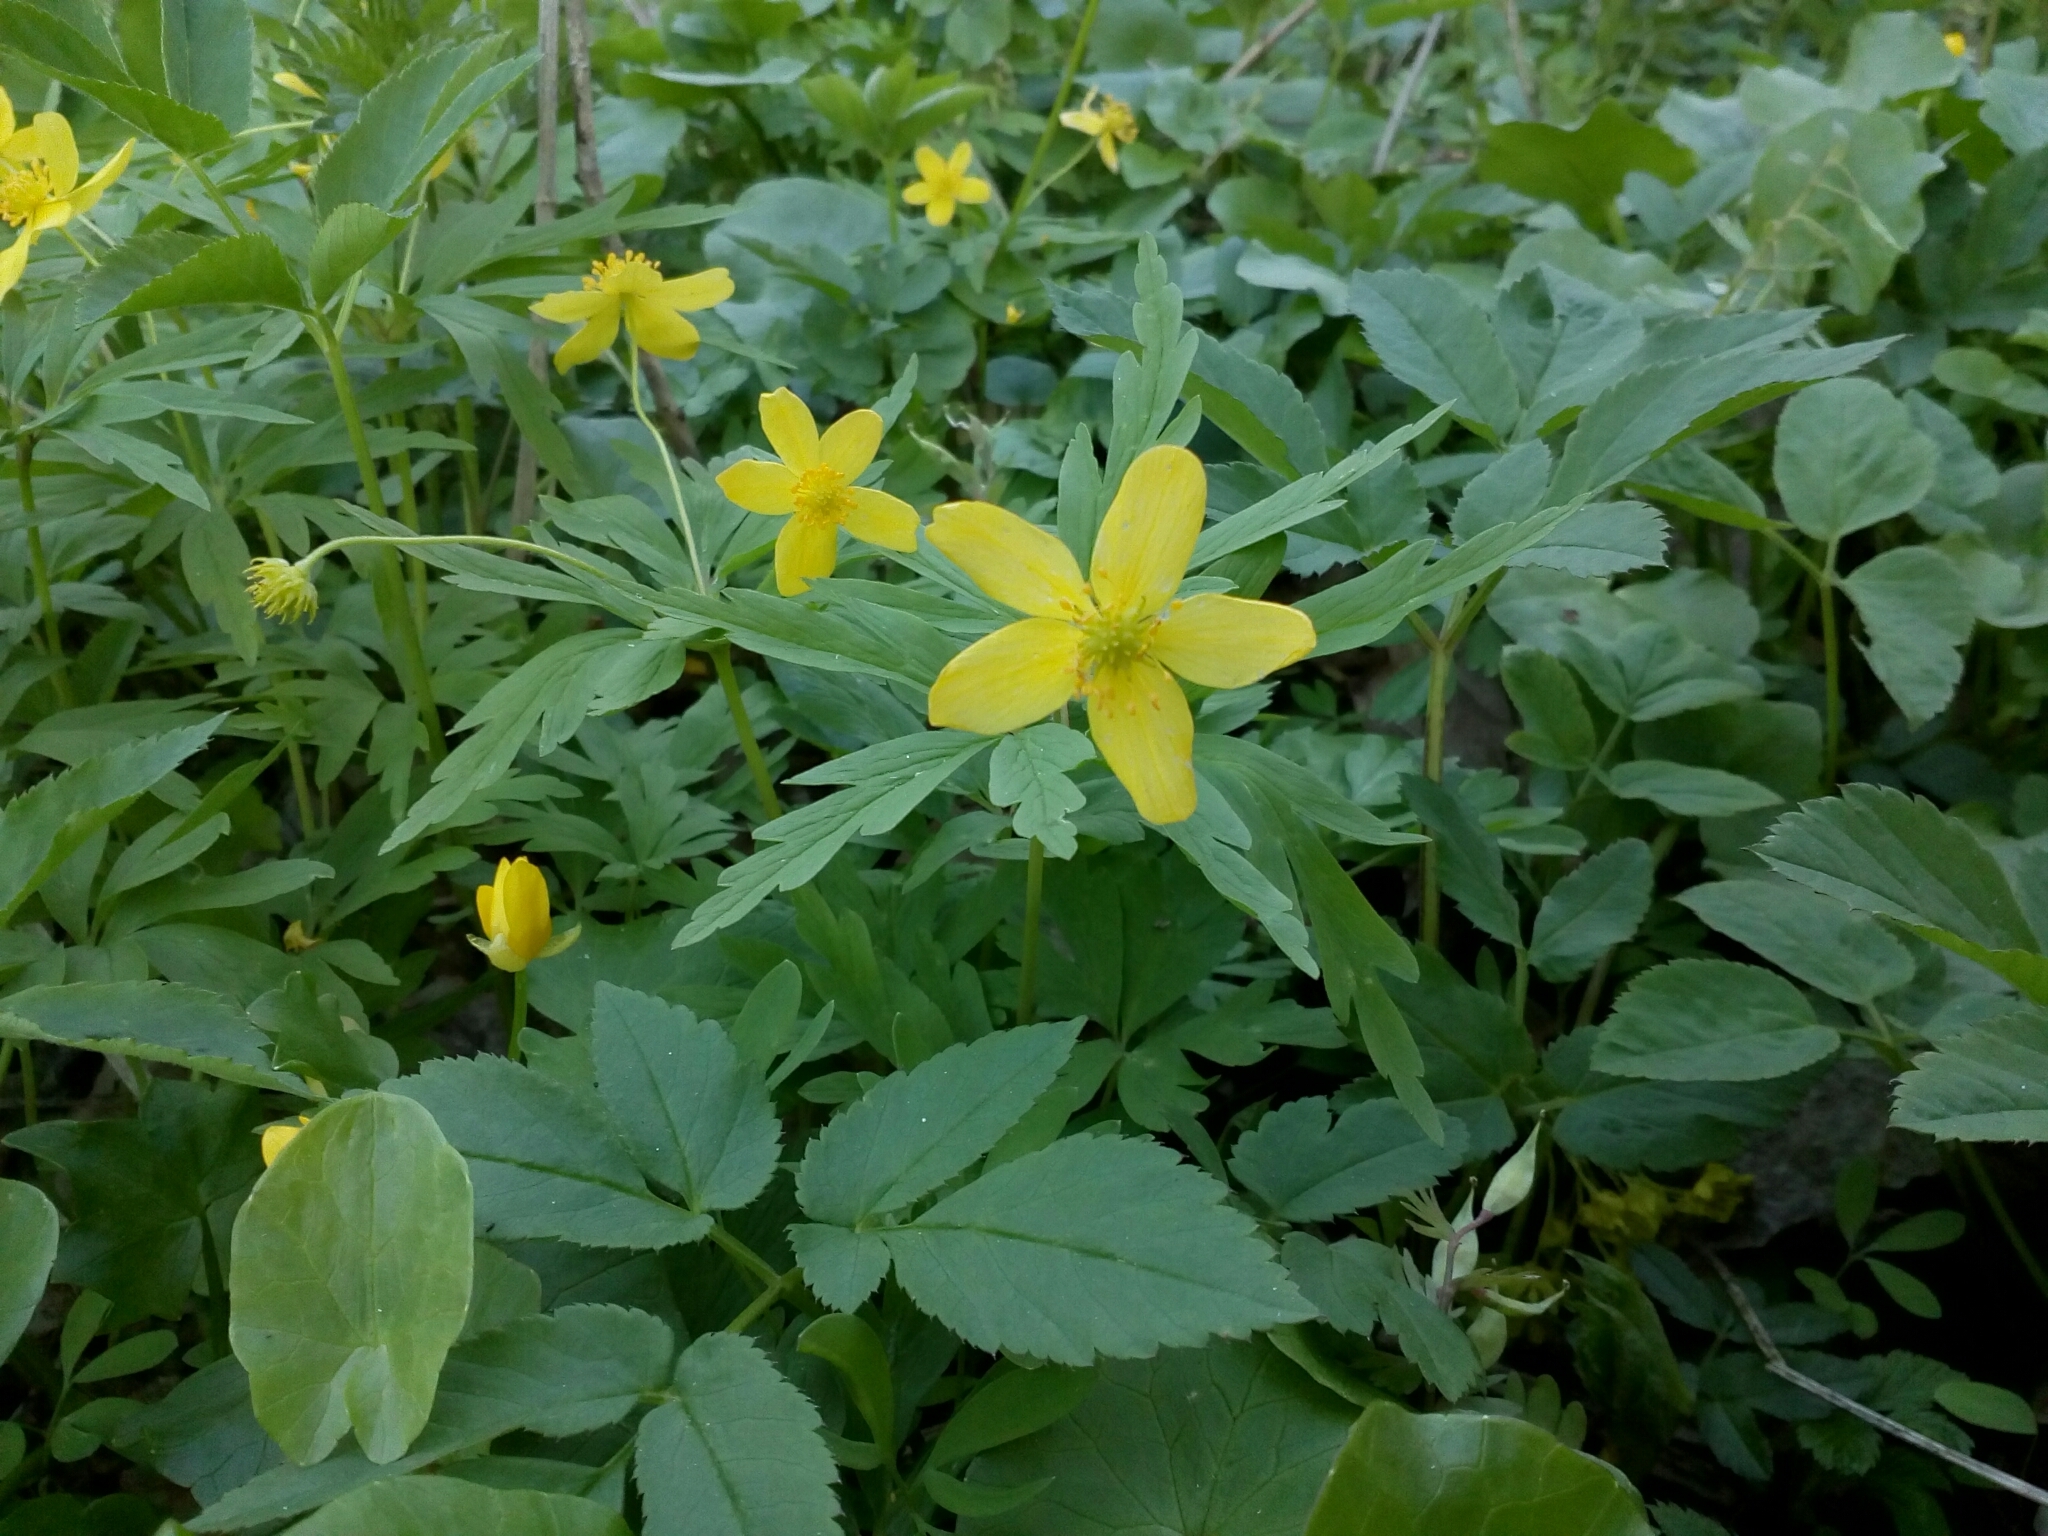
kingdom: Plantae
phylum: Tracheophyta
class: Magnoliopsida
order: Ranunculales
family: Ranunculaceae
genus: Anemone
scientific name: Anemone ranunculoides
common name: Yellow anemone
